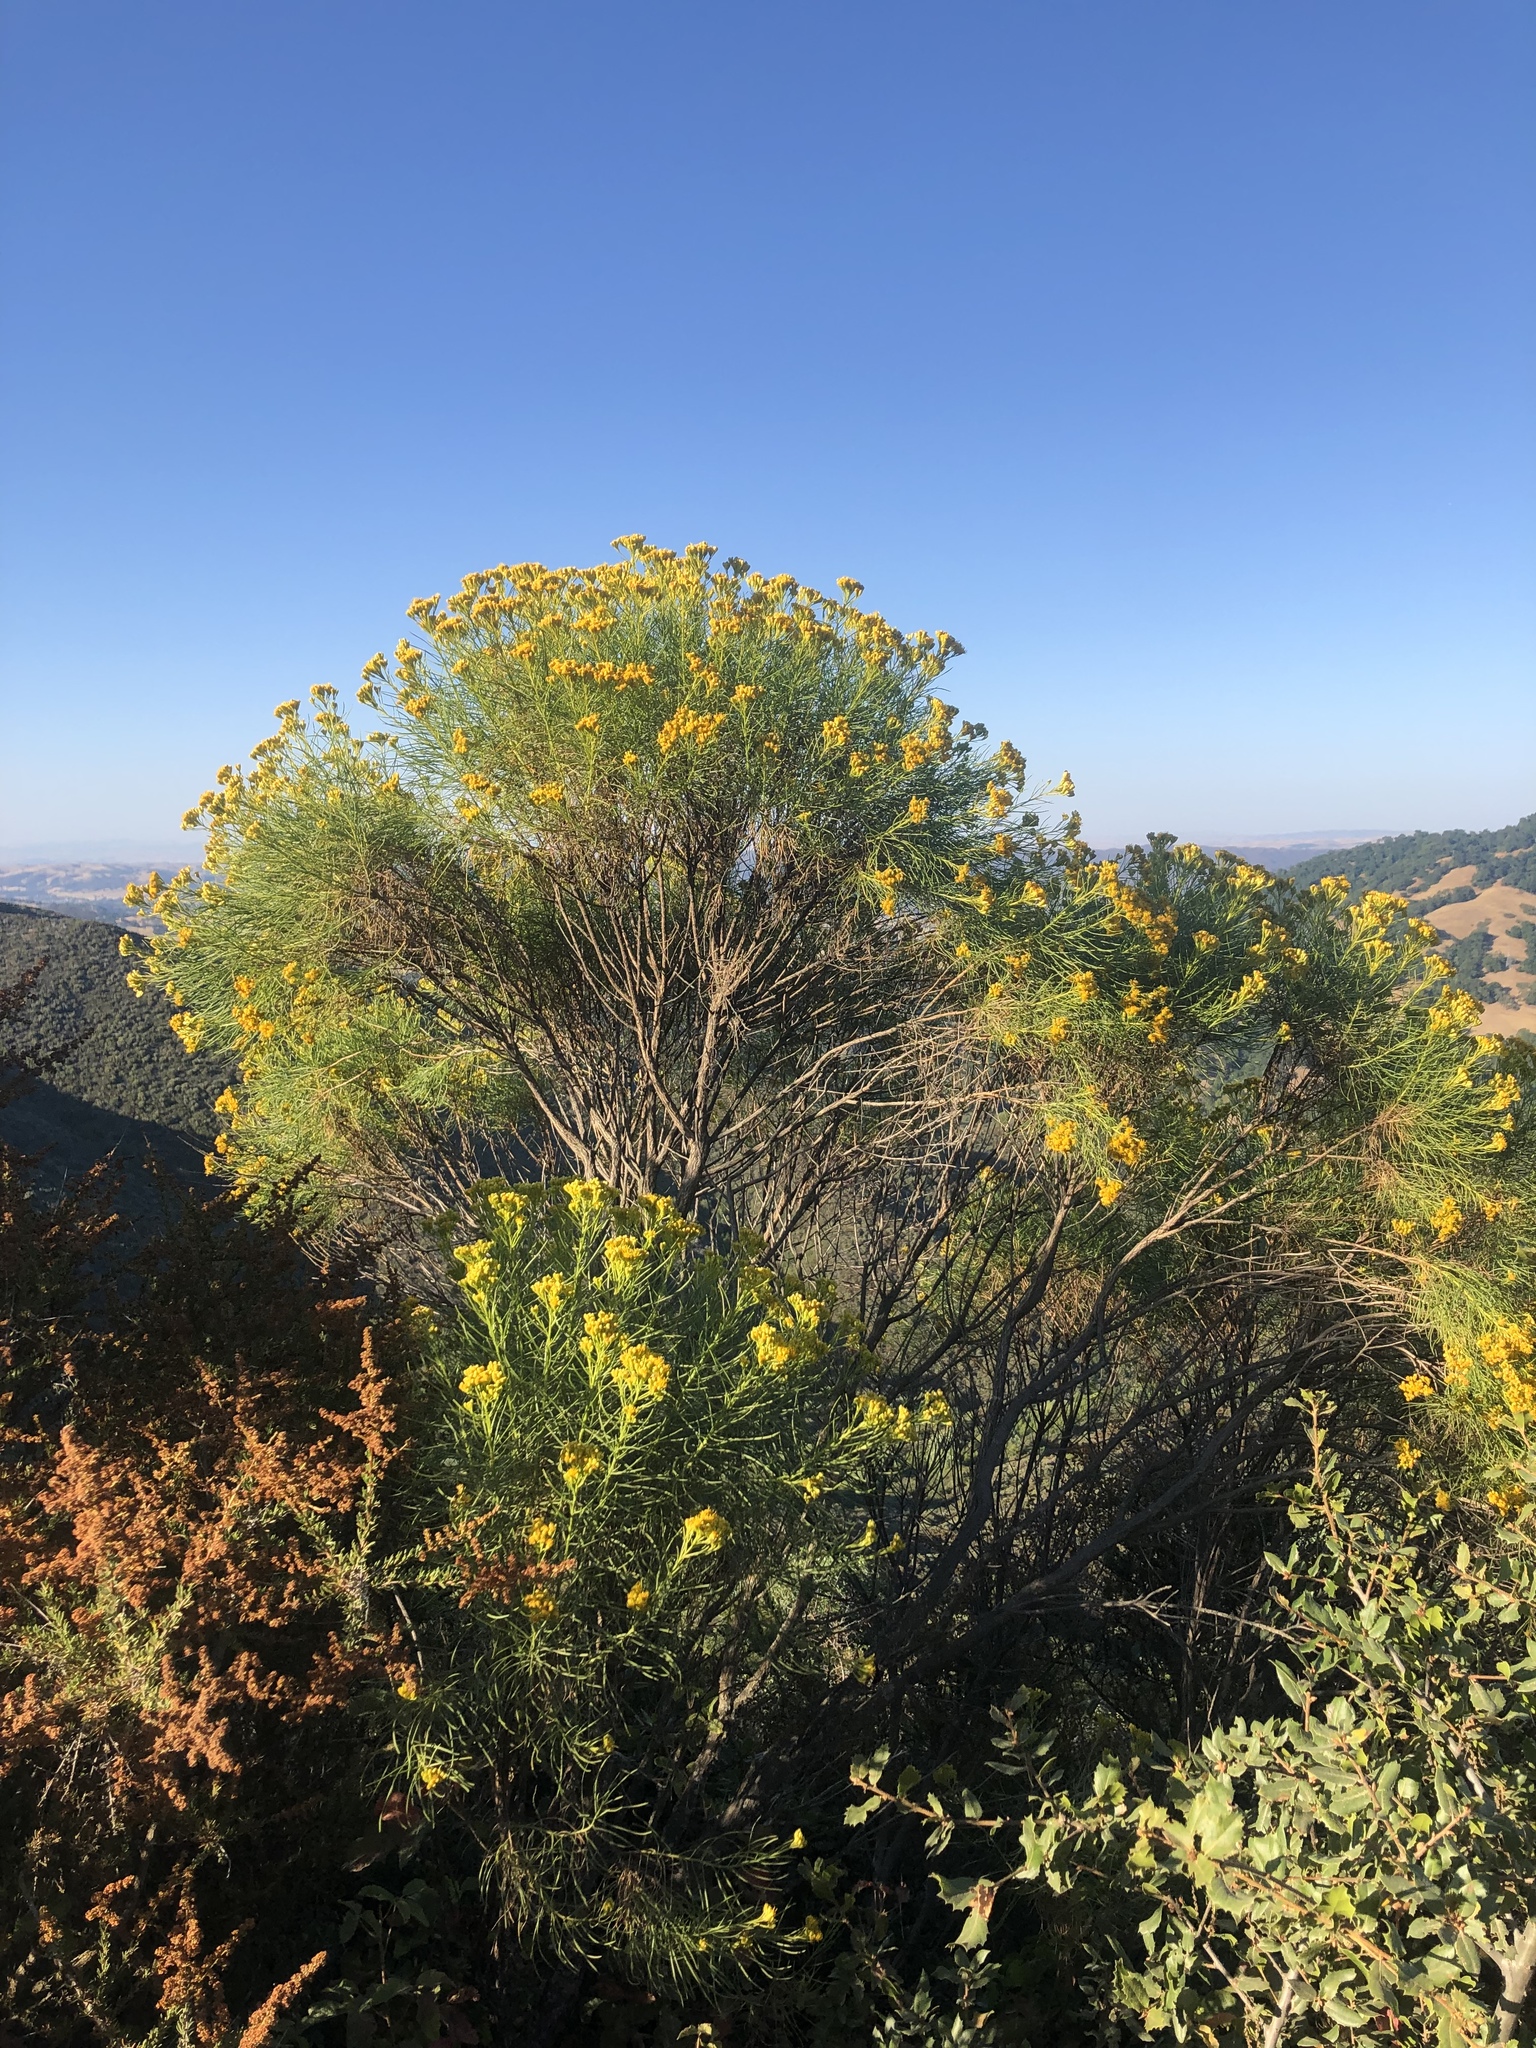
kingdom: Plantae
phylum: Tracheophyta
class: Magnoliopsida
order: Asterales
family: Asteraceae
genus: Ericameria
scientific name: Ericameria arborescens
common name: Goldenfleece
